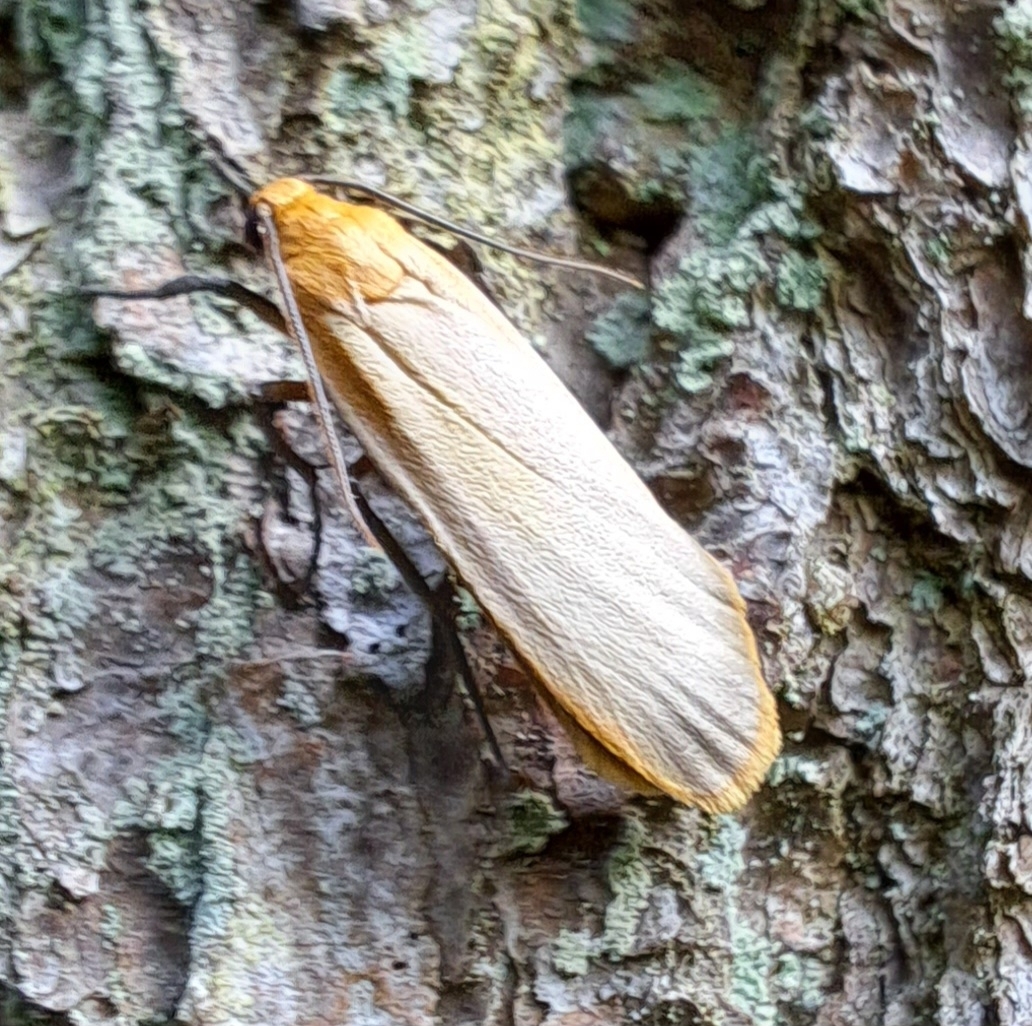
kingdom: Animalia
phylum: Arthropoda
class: Insecta
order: Lepidoptera
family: Erebidae
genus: Katha
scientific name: Katha depressa
